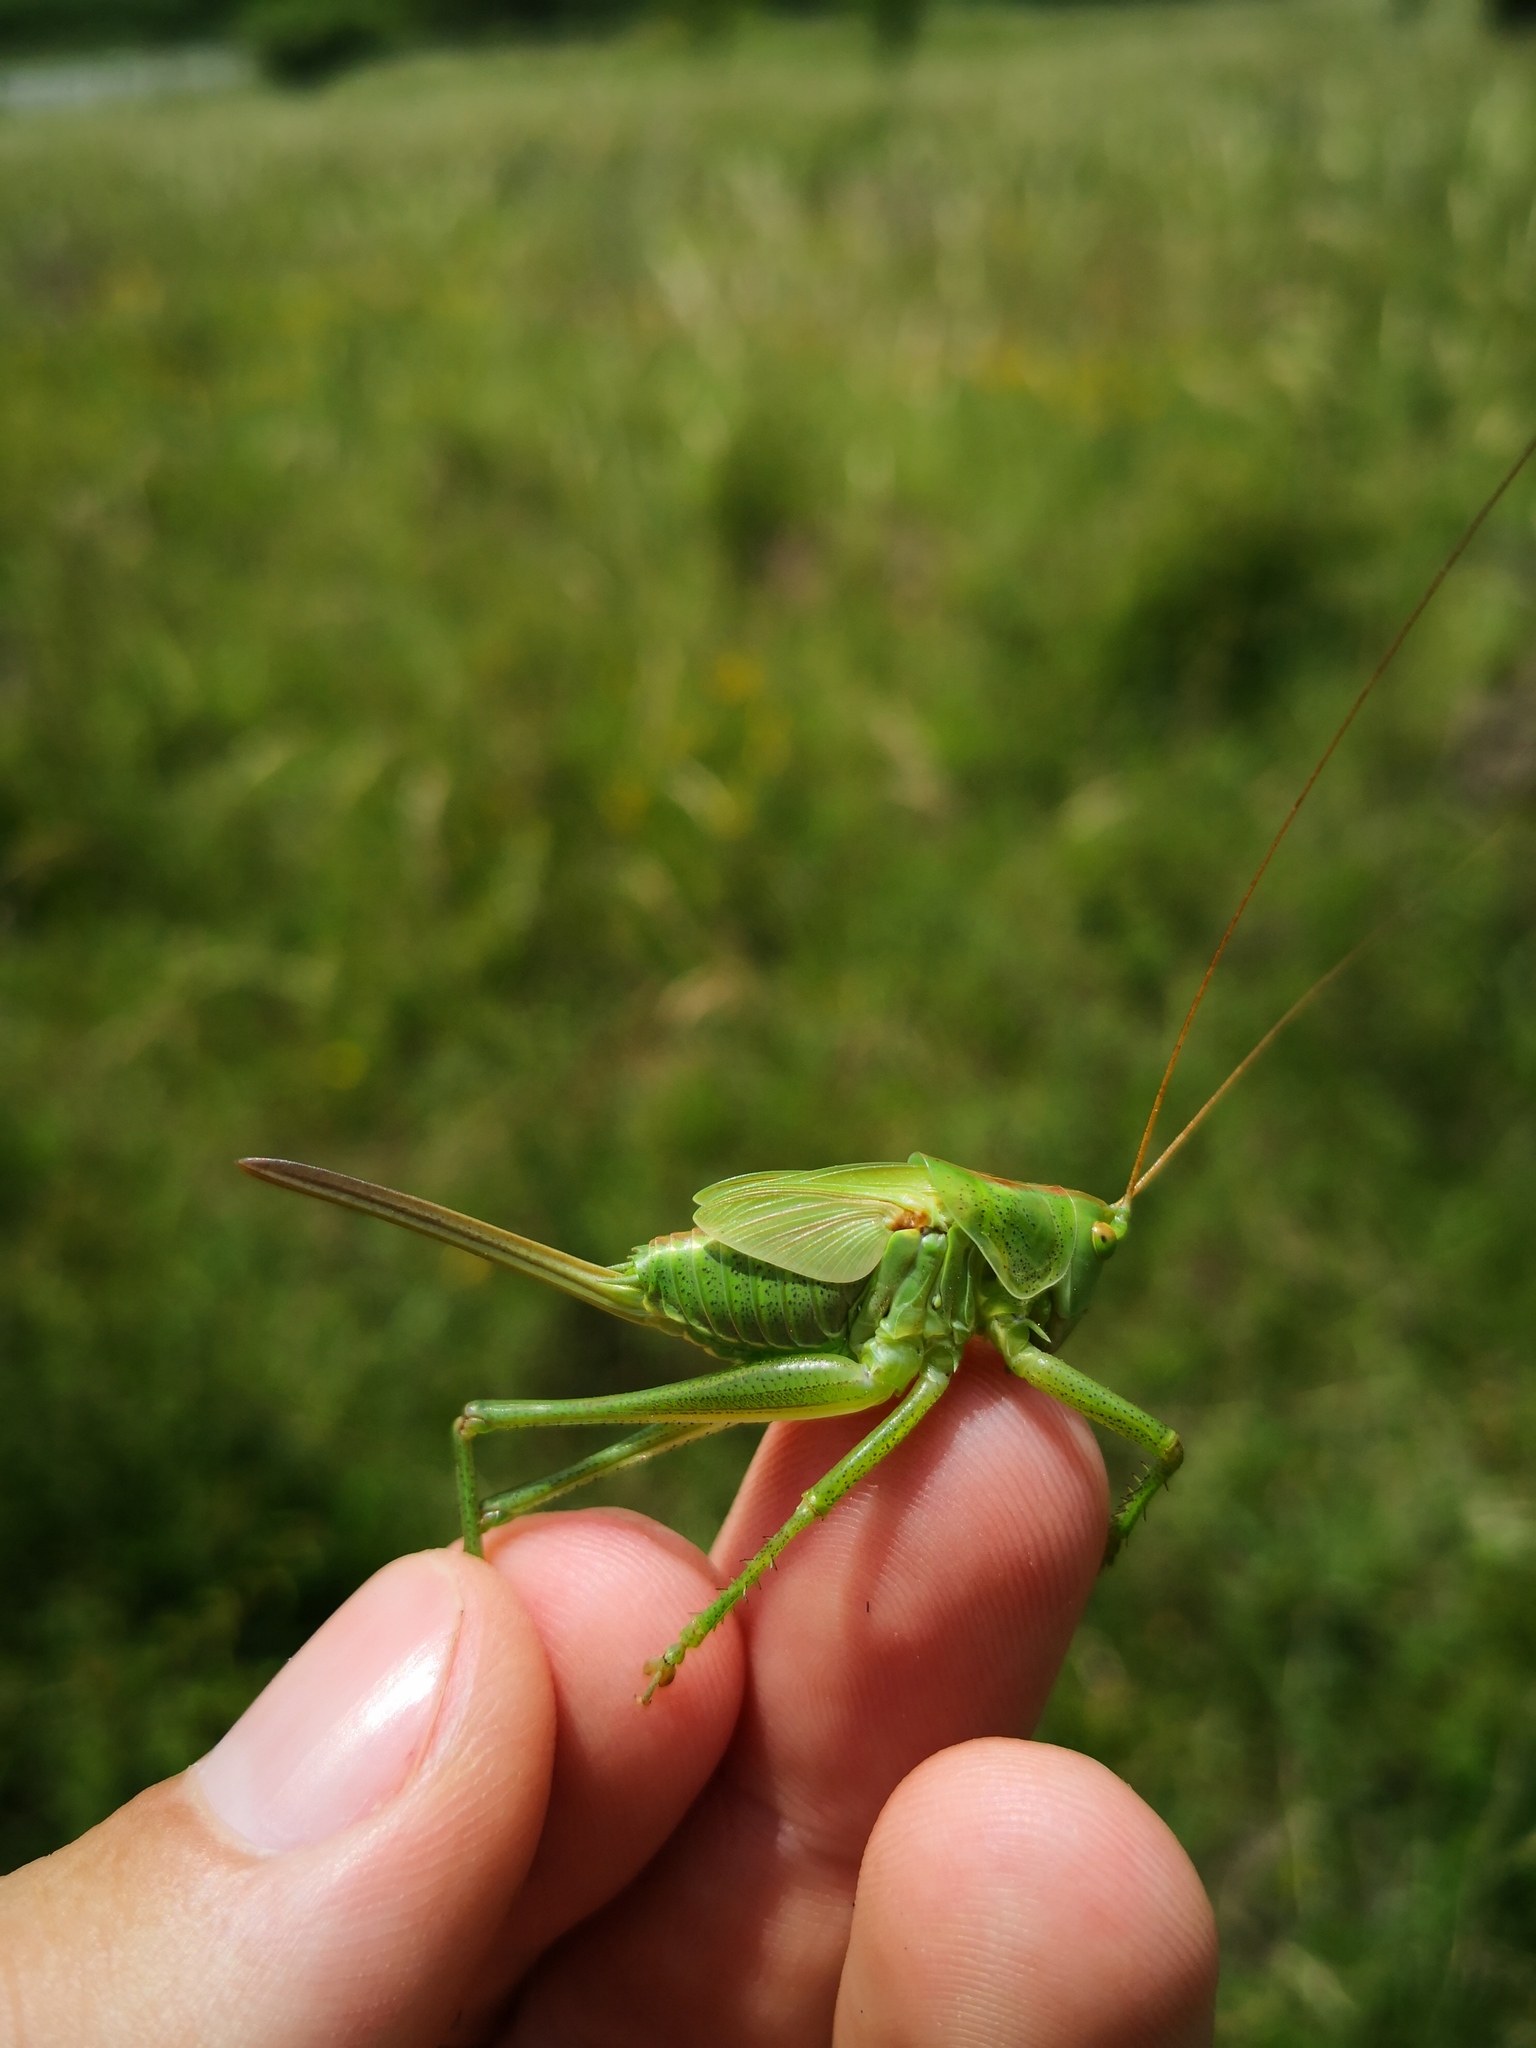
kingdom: Animalia
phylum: Arthropoda
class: Insecta
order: Orthoptera
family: Tettigoniidae
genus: Tettigonia
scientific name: Tettigonia viridissima
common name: Great green bush-cricket
